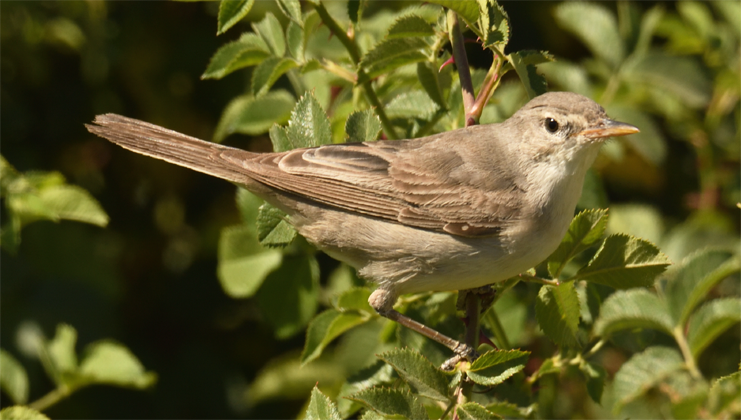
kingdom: Animalia
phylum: Chordata
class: Aves
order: Passeriformes
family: Acrocephalidae
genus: Hippolais
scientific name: Hippolais languida
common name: Upcher's warbler
